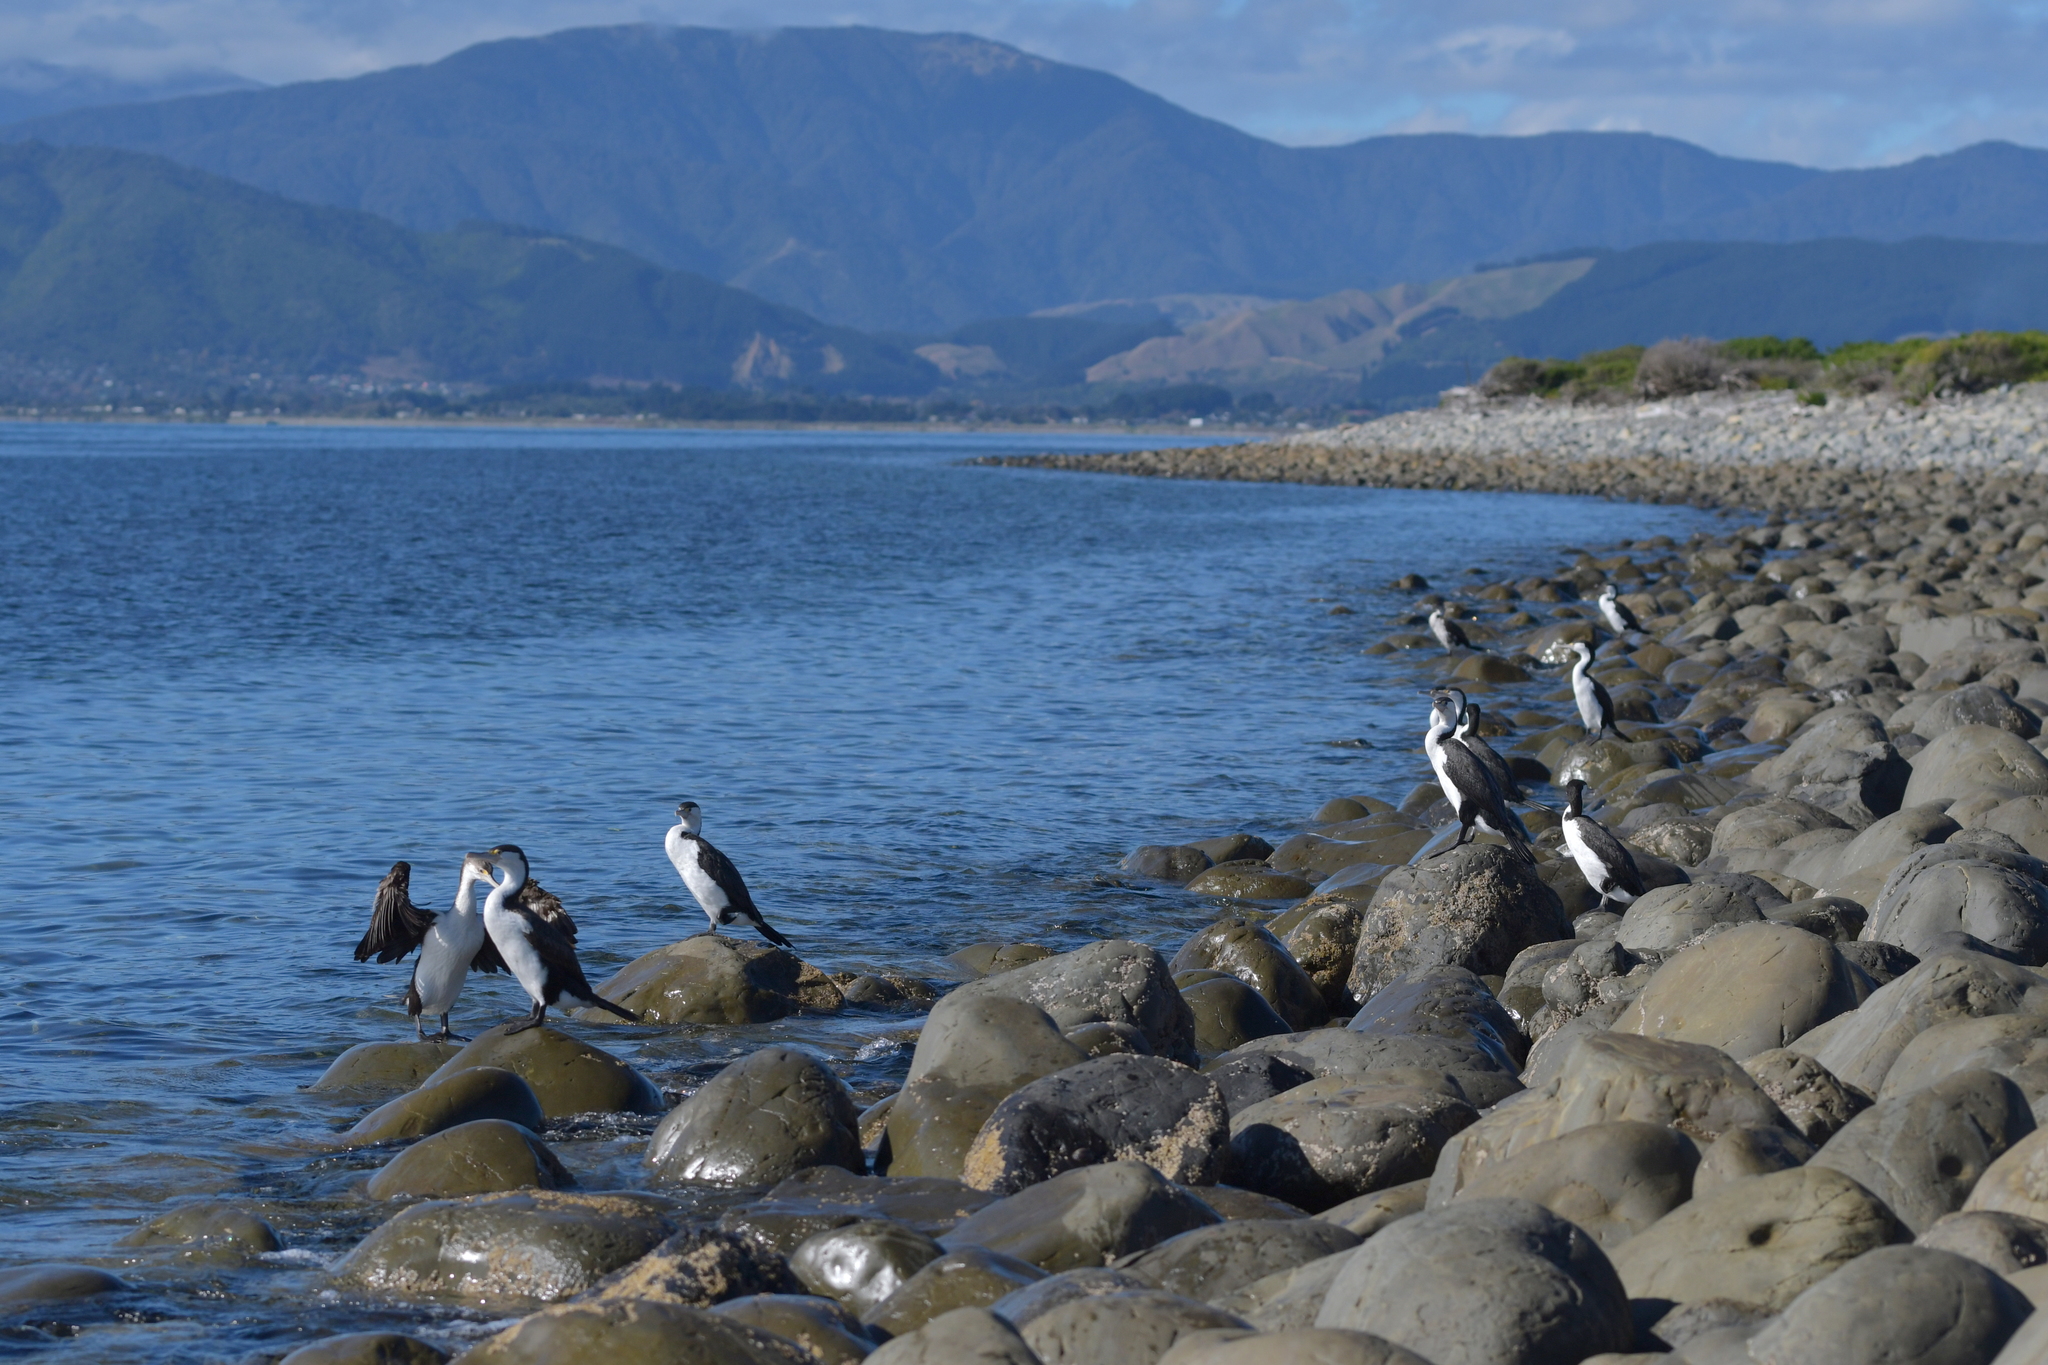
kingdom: Animalia
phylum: Chordata
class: Aves
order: Suliformes
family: Phalacrocoracidae
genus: Phalacrocorax
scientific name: Phalacrocorax varius
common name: Pied cormorant
